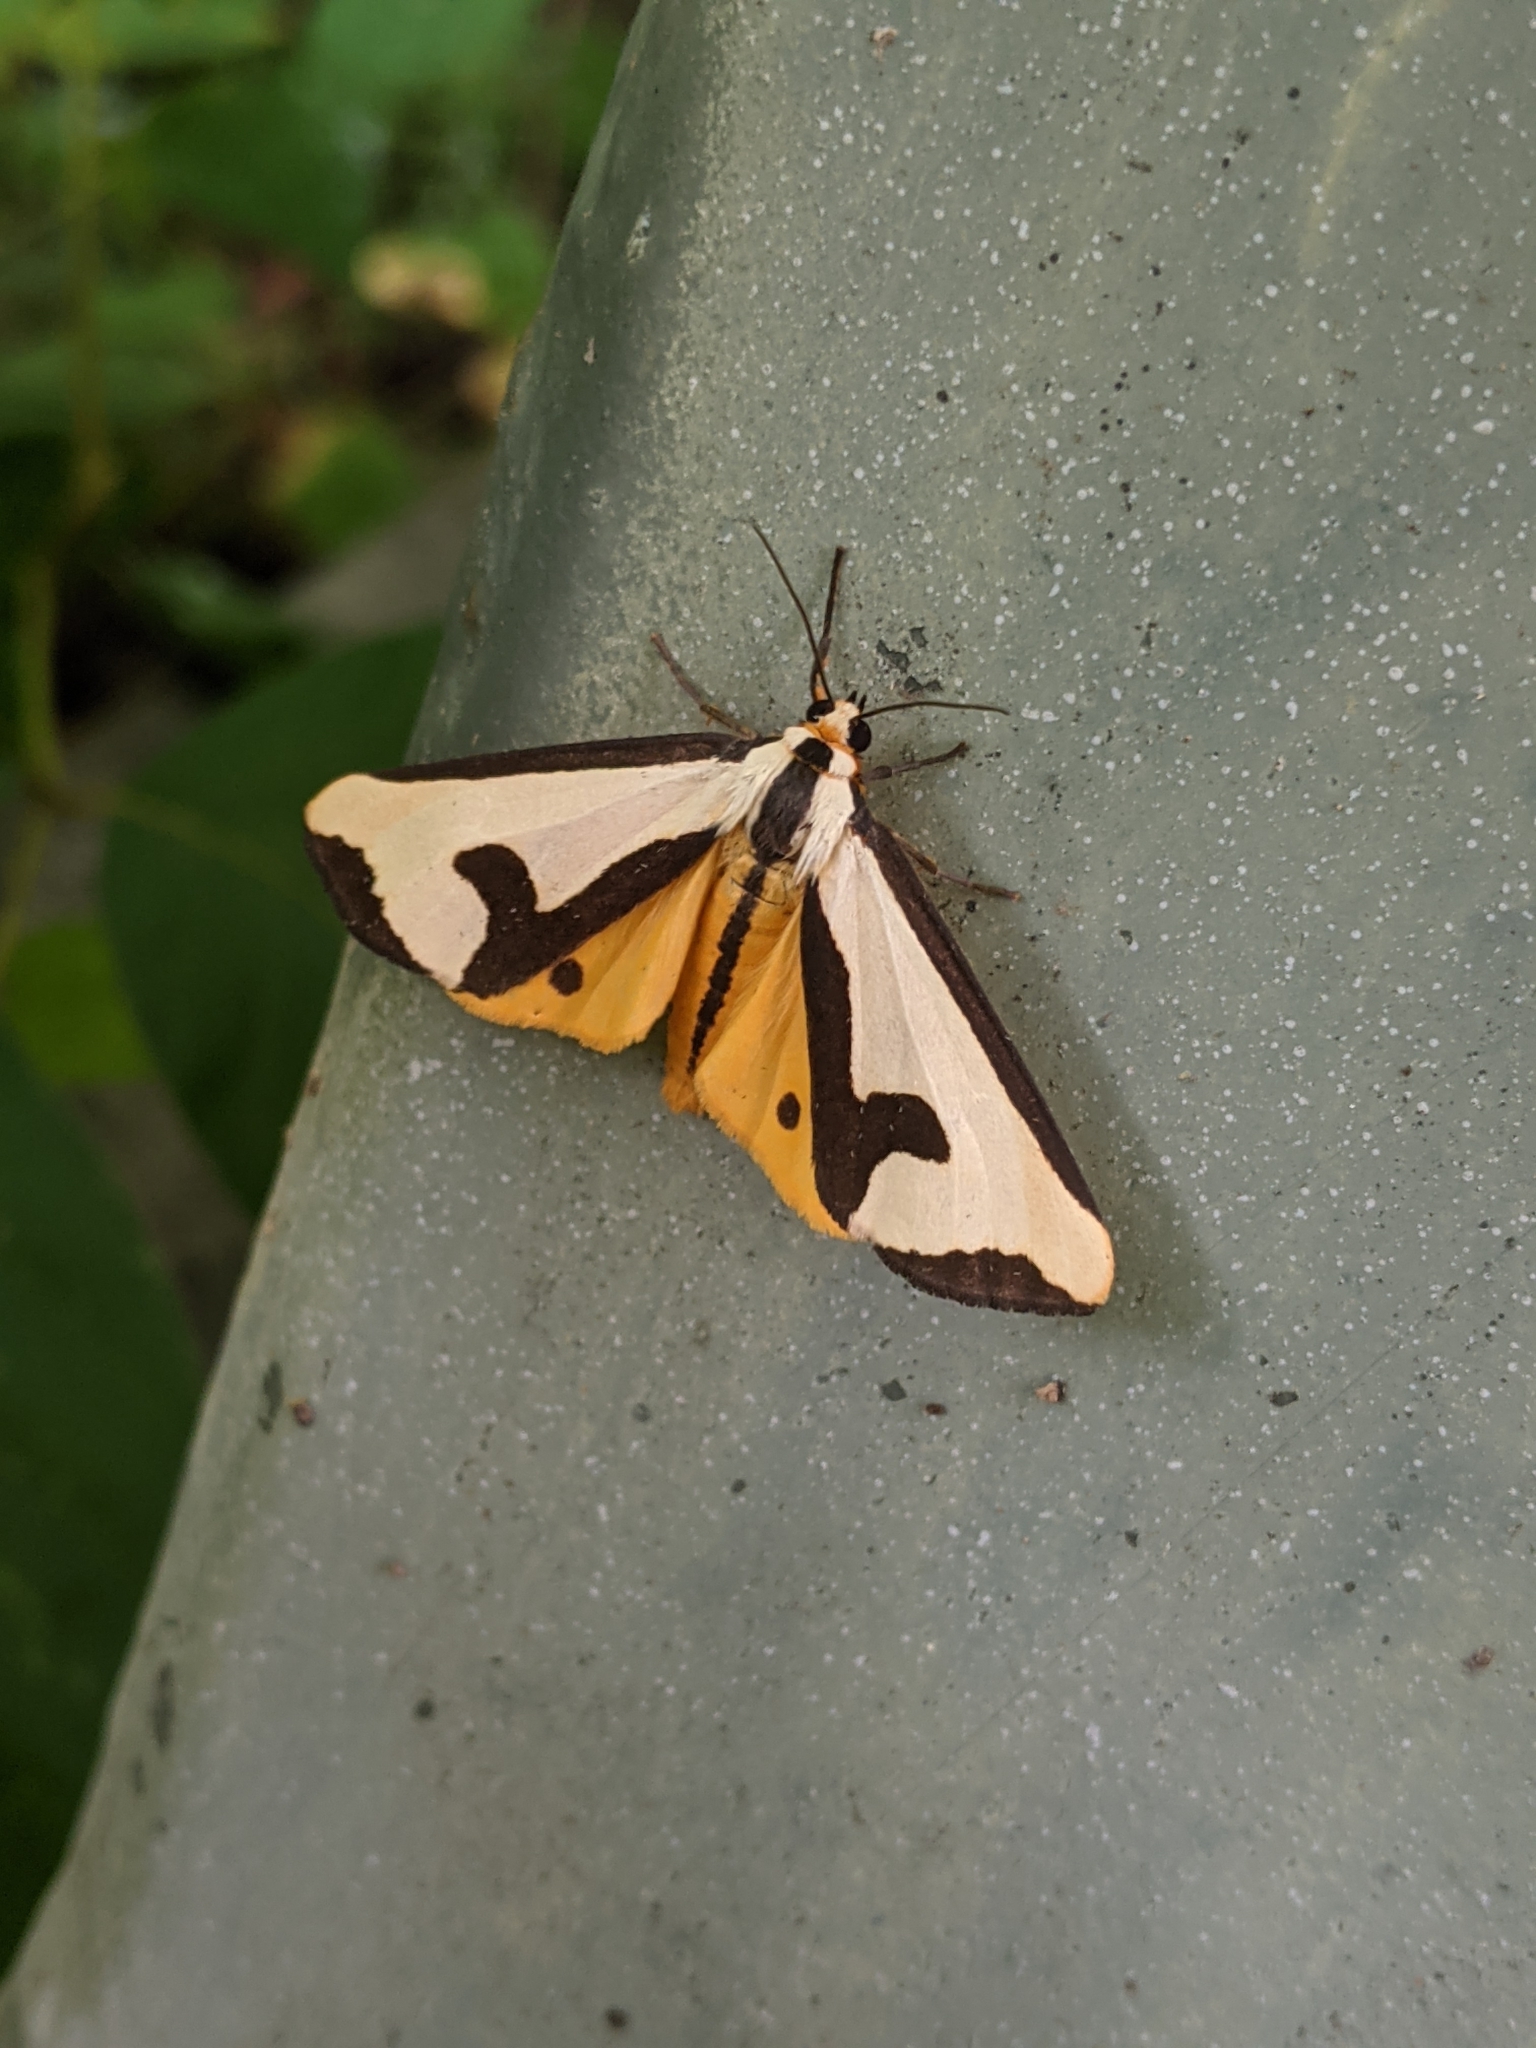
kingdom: Animalia
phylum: Arthropoda
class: Insecta
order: Lepidoptera
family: Erebidae
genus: Haploa
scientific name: Haploa clymene
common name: Clymene moth
